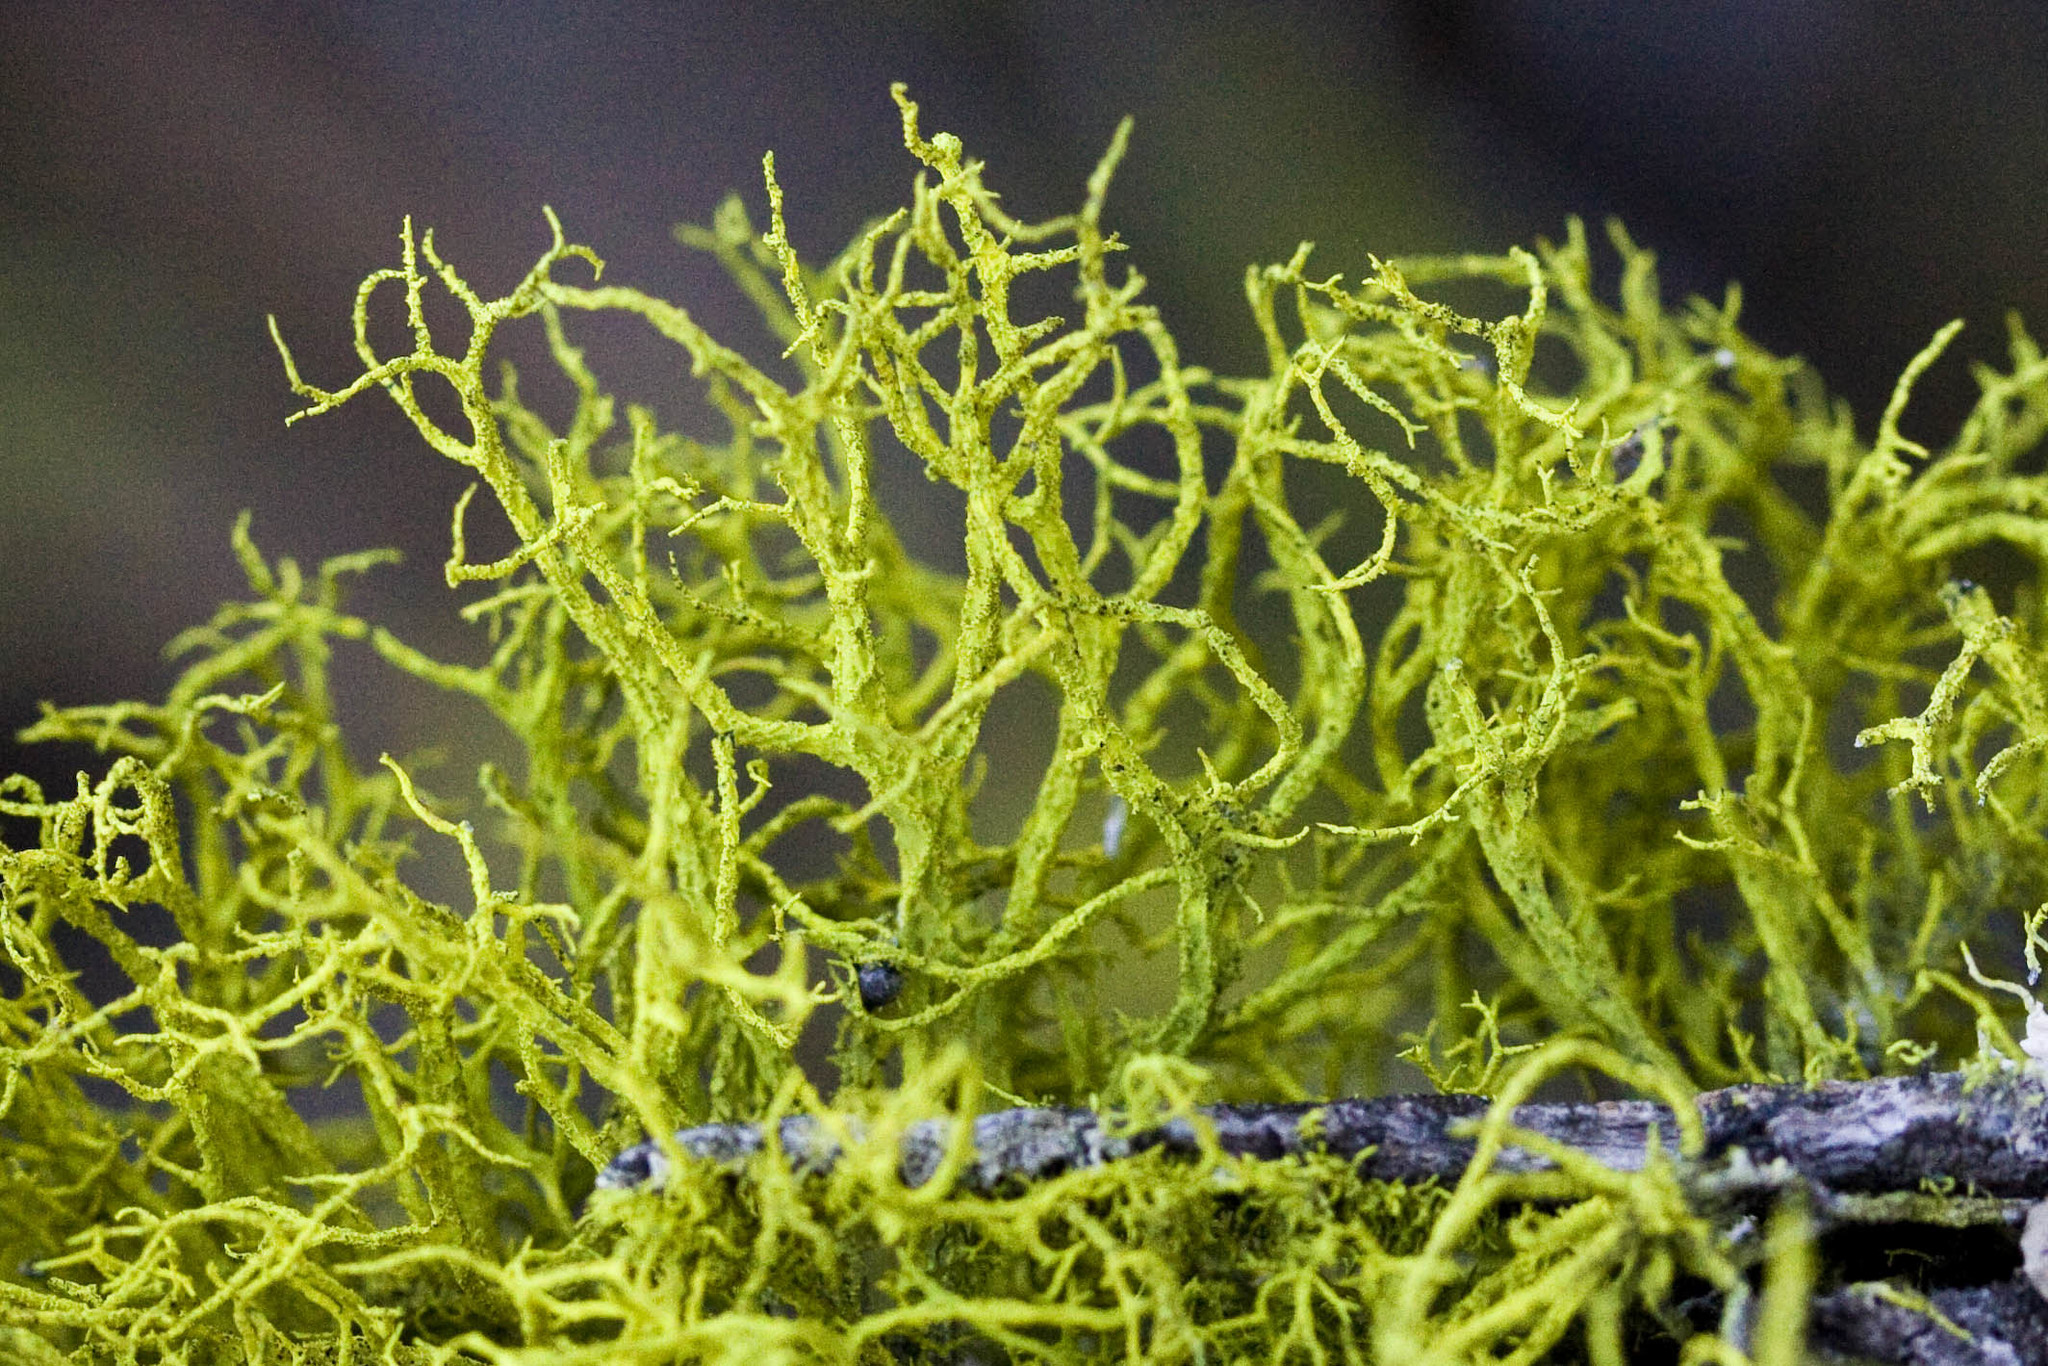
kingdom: Fungi
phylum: Ascomycota
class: Lecanoromycetes
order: Lecanorales
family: Parmeliaceae
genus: Letharia
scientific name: Letharia vulpina
